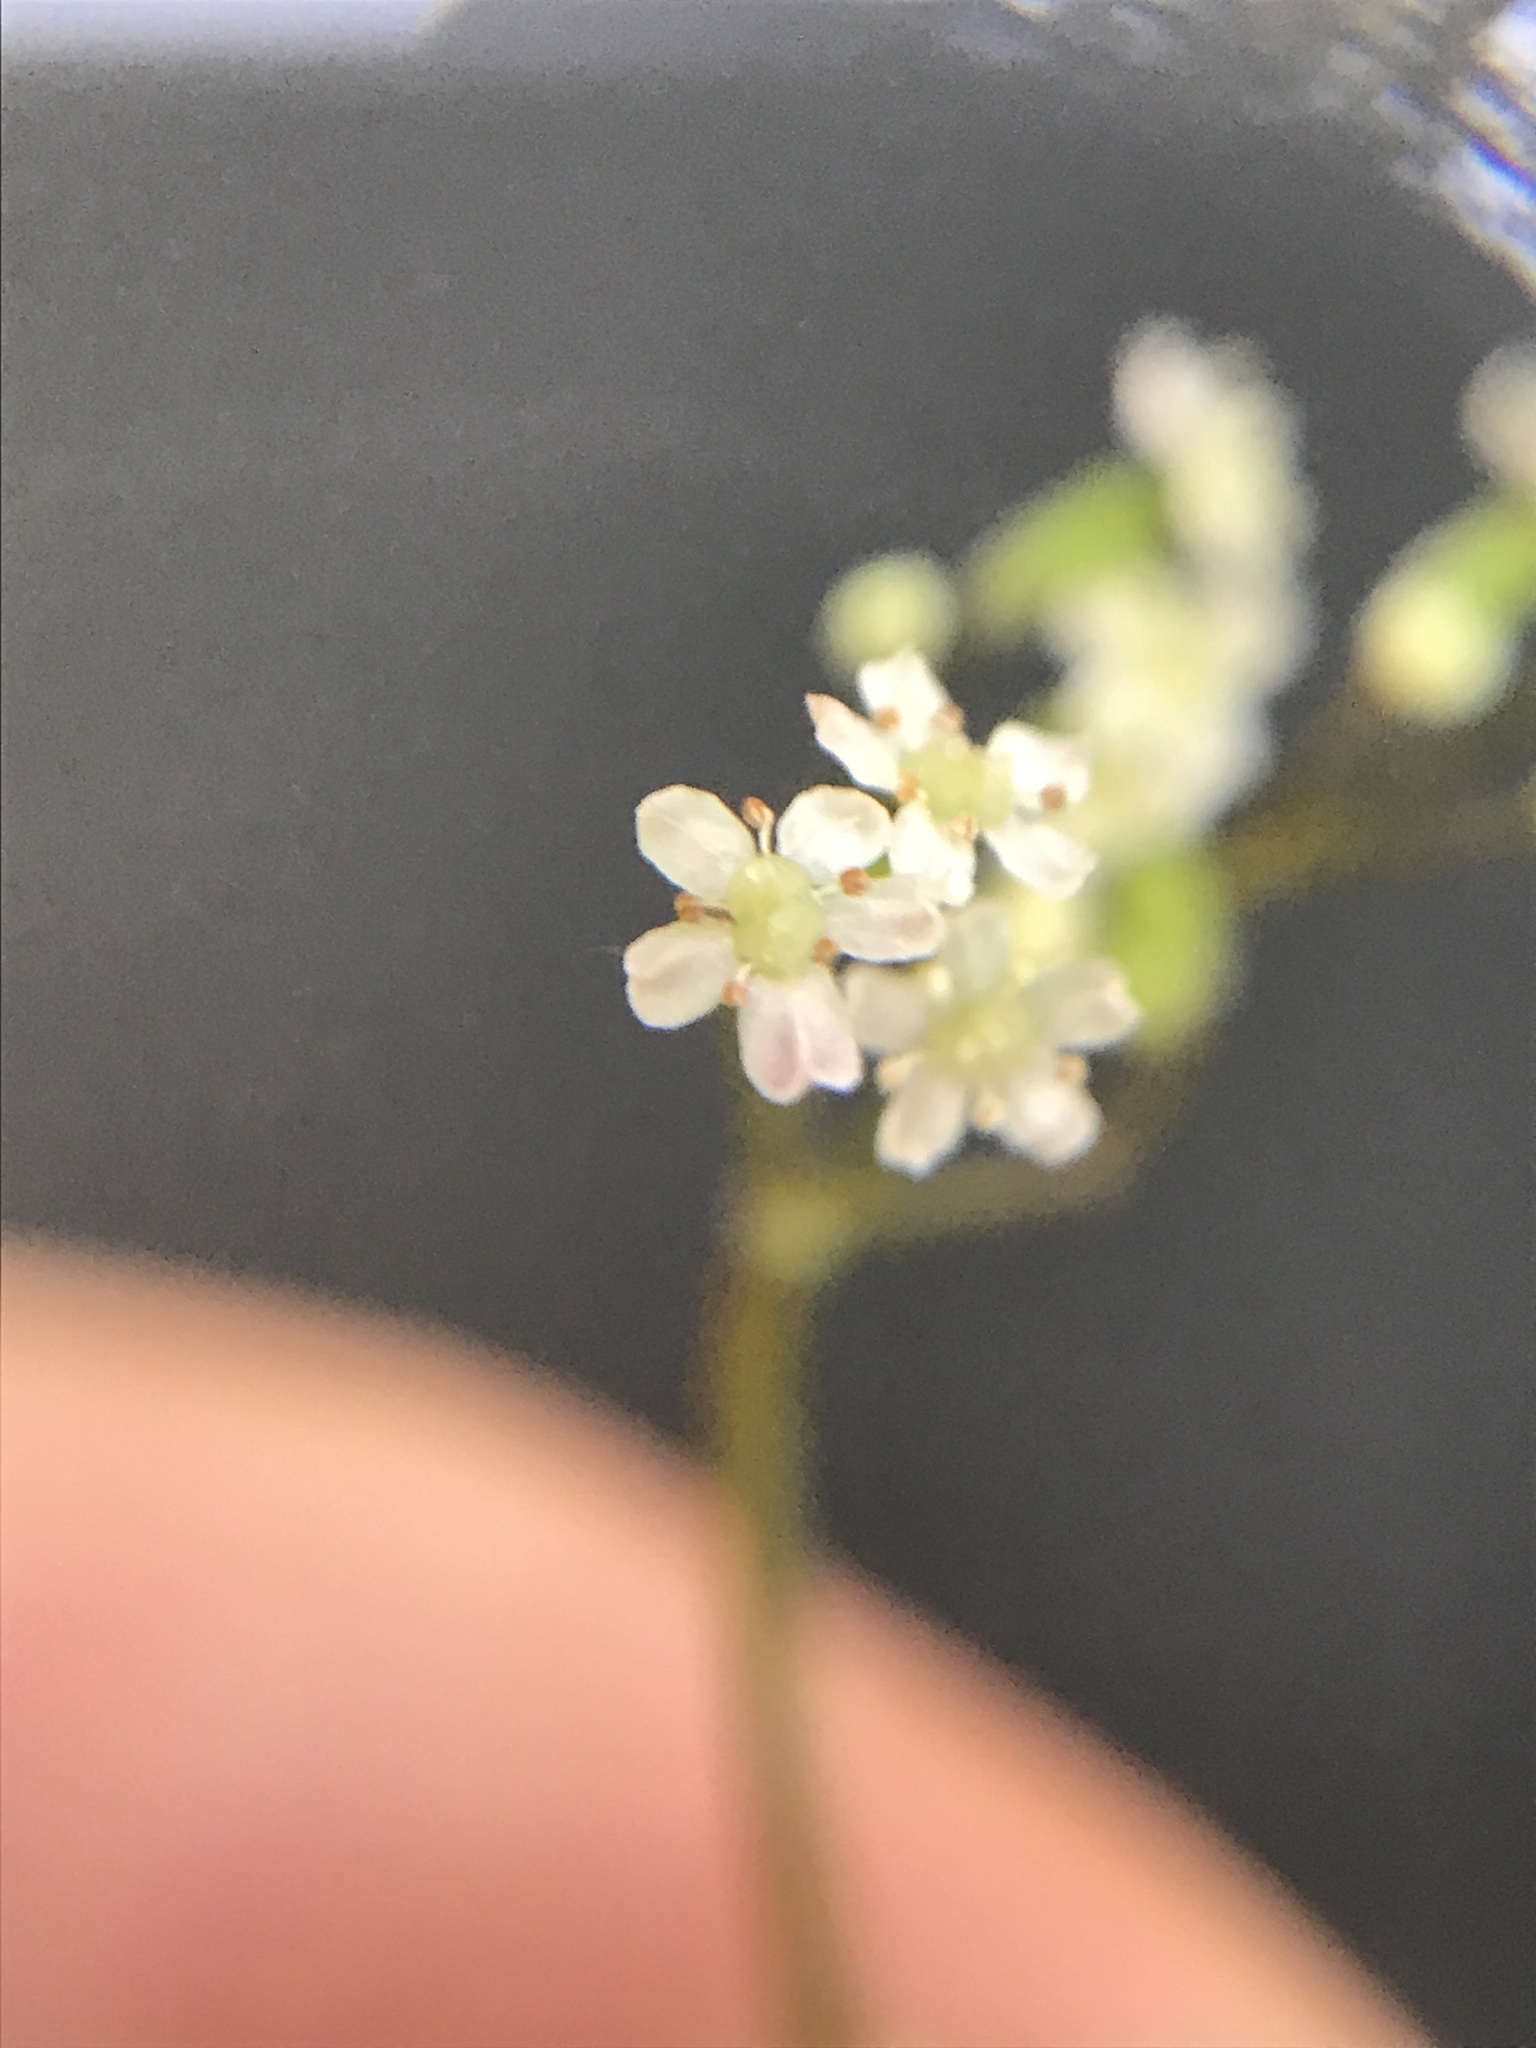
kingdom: Plantae
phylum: Tracheophyta
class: Magnoliopsida
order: Apiales
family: Apiaceae
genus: Osmorhiza
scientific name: Osmorhiza berteroi
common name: Mountain sweet cicely
